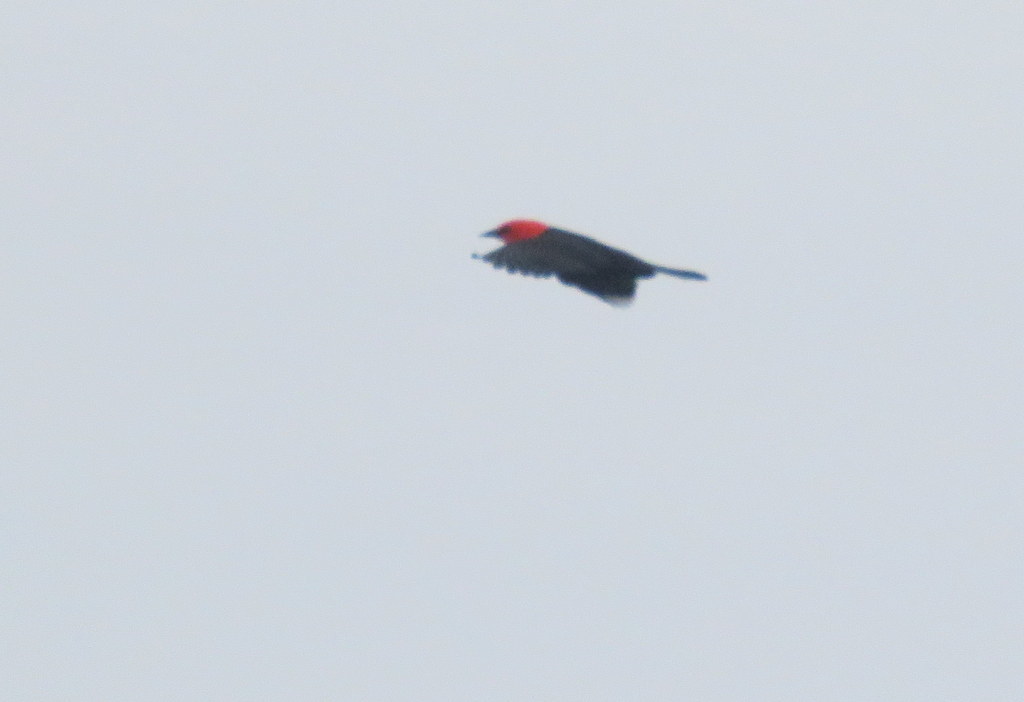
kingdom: Animalia
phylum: Chordata
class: Aves
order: Passeriformes
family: Icteridae
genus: Amblyramphus
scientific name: Amblyramphus holosericeus
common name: Scarlet-headed blackbird
